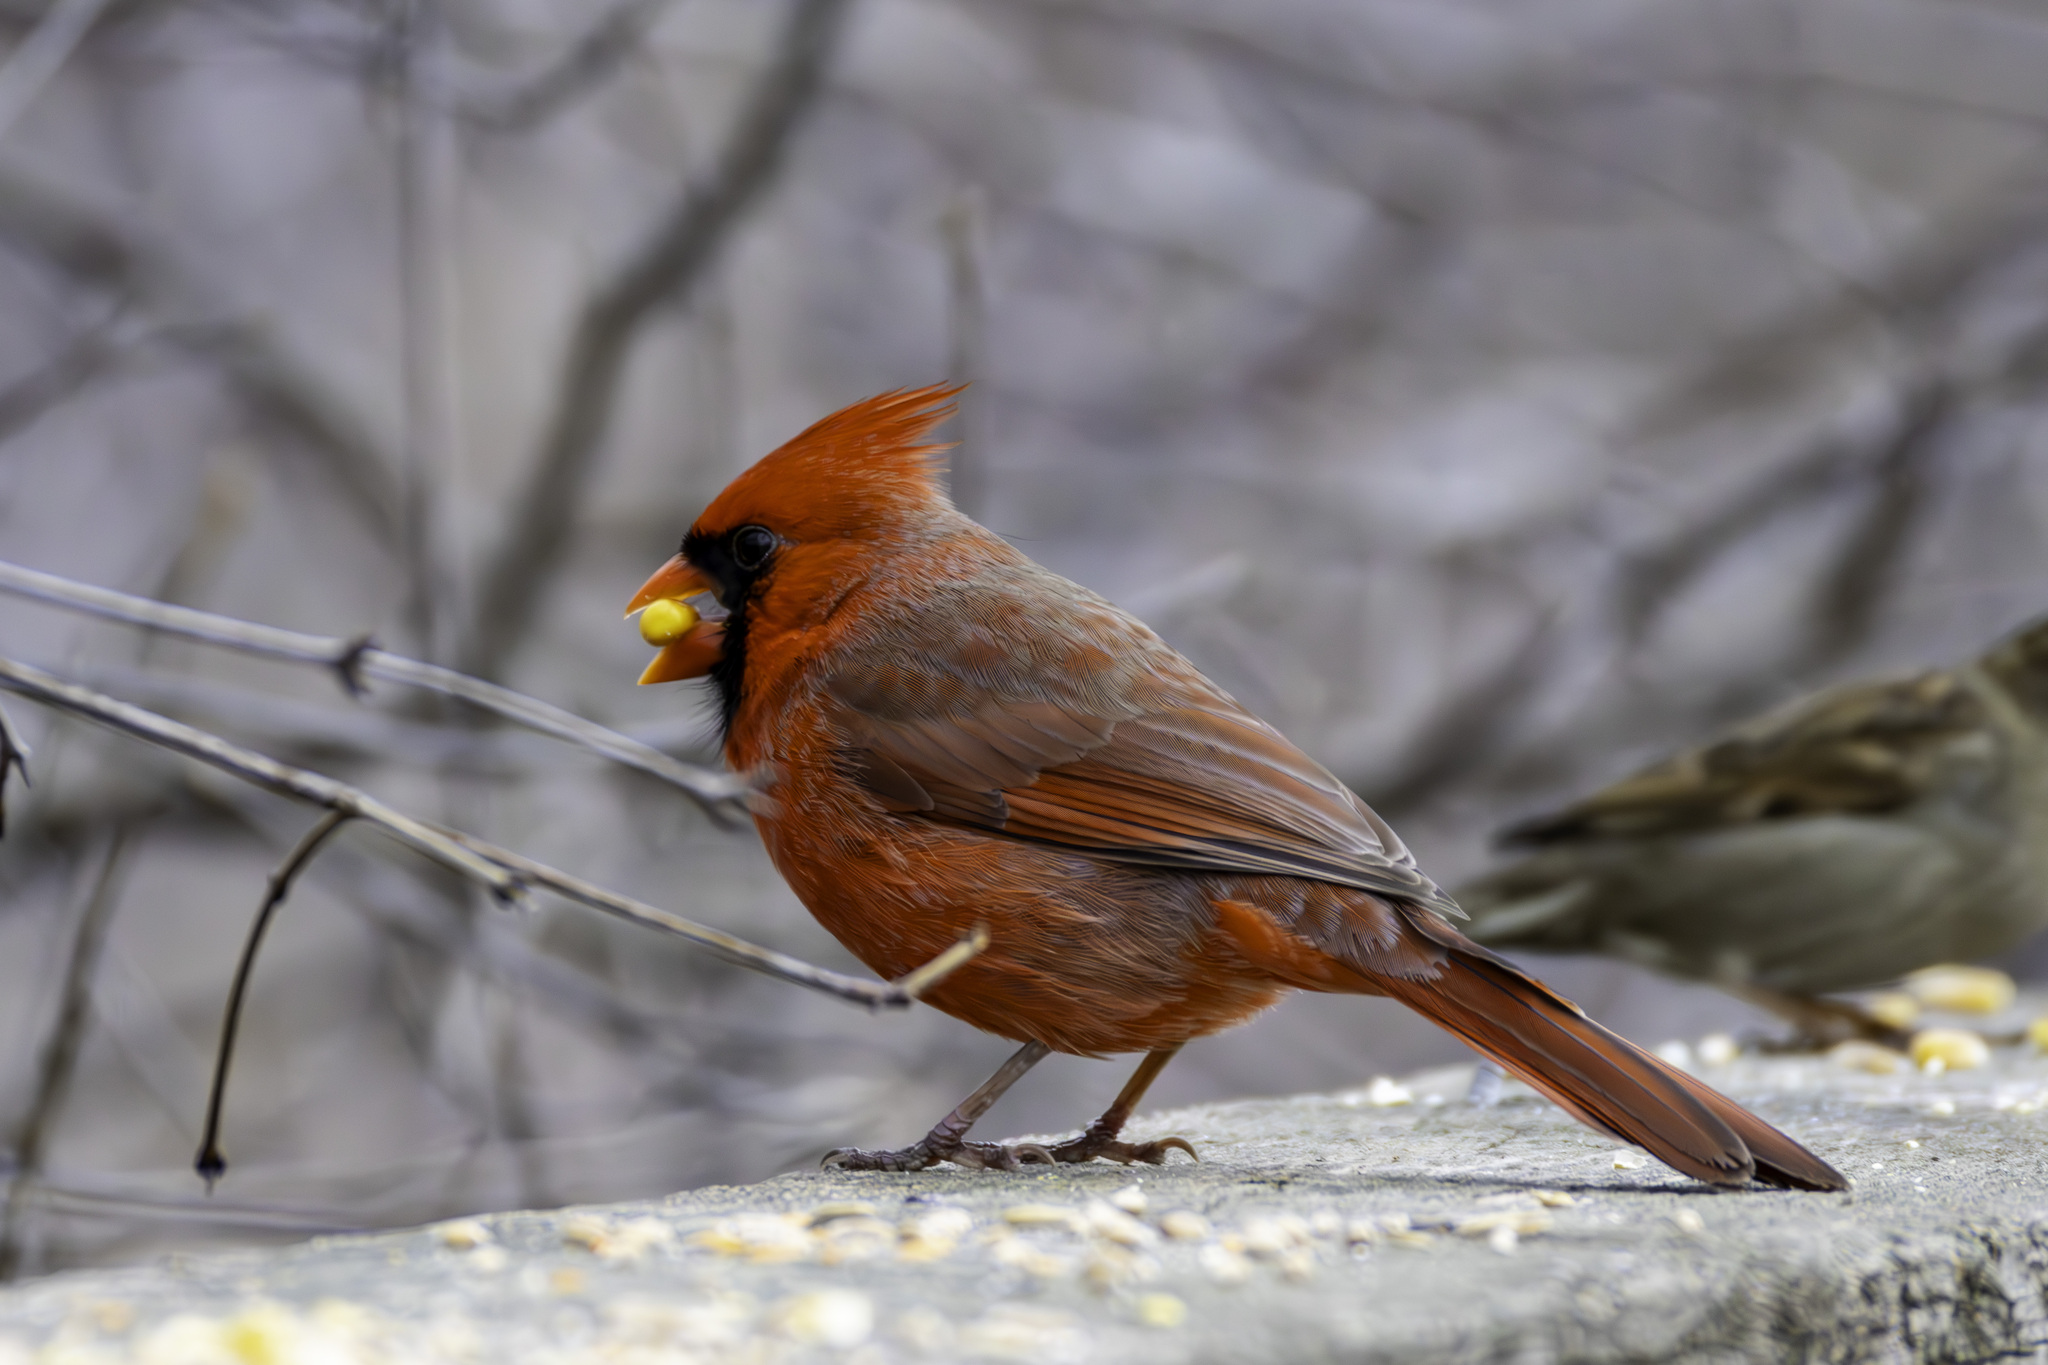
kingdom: Animalia
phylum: Chordata
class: Aves
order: Passeriformes
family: Cardinalidae
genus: Cardinalis
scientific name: Cardinalis cardinalis
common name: Northern cardinal
